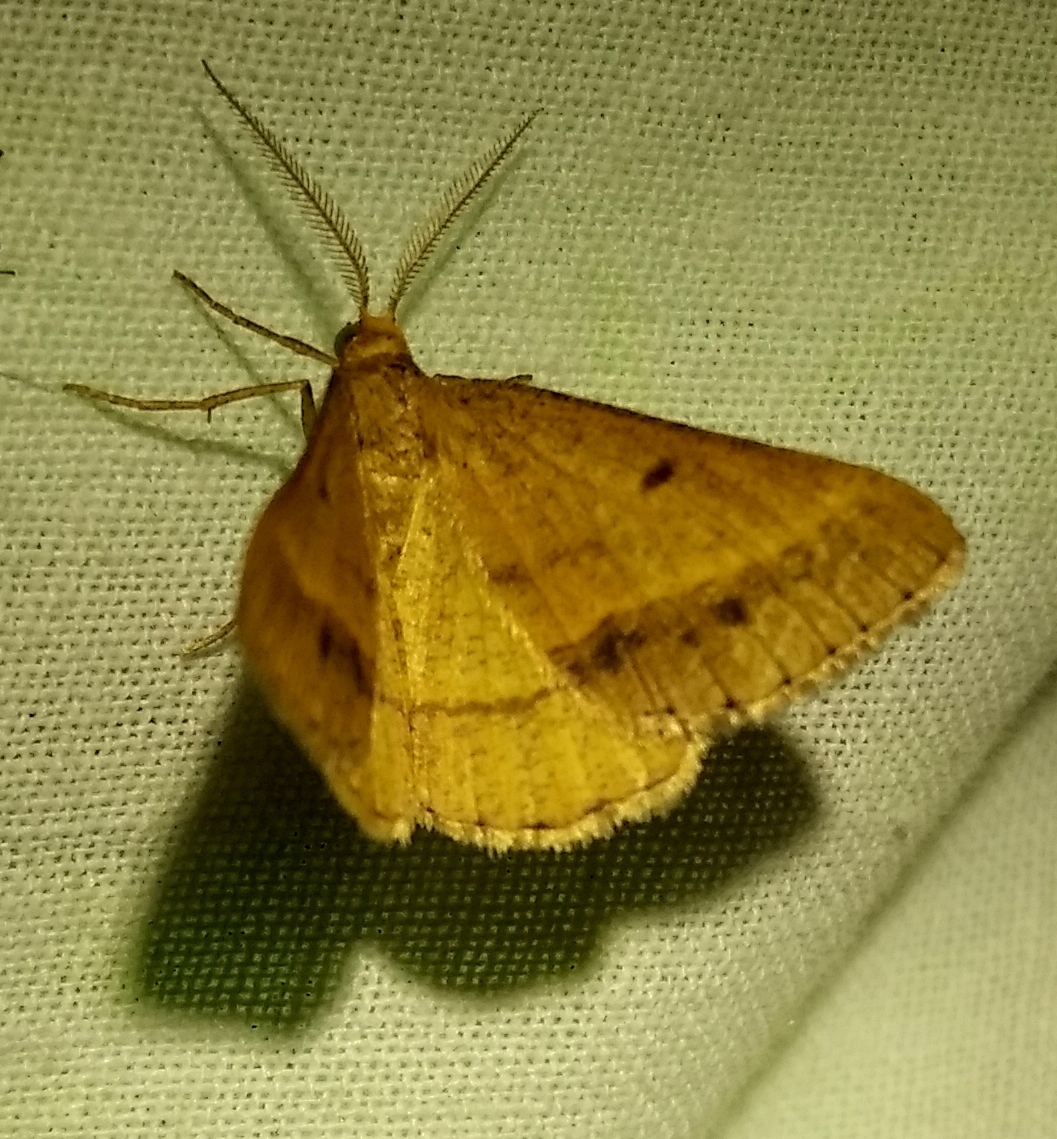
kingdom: Animalia
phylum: Arthropoda
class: Insecta
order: Lepidoptera
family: Geometridae
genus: Tephrina
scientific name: Tephrina arenacearia
